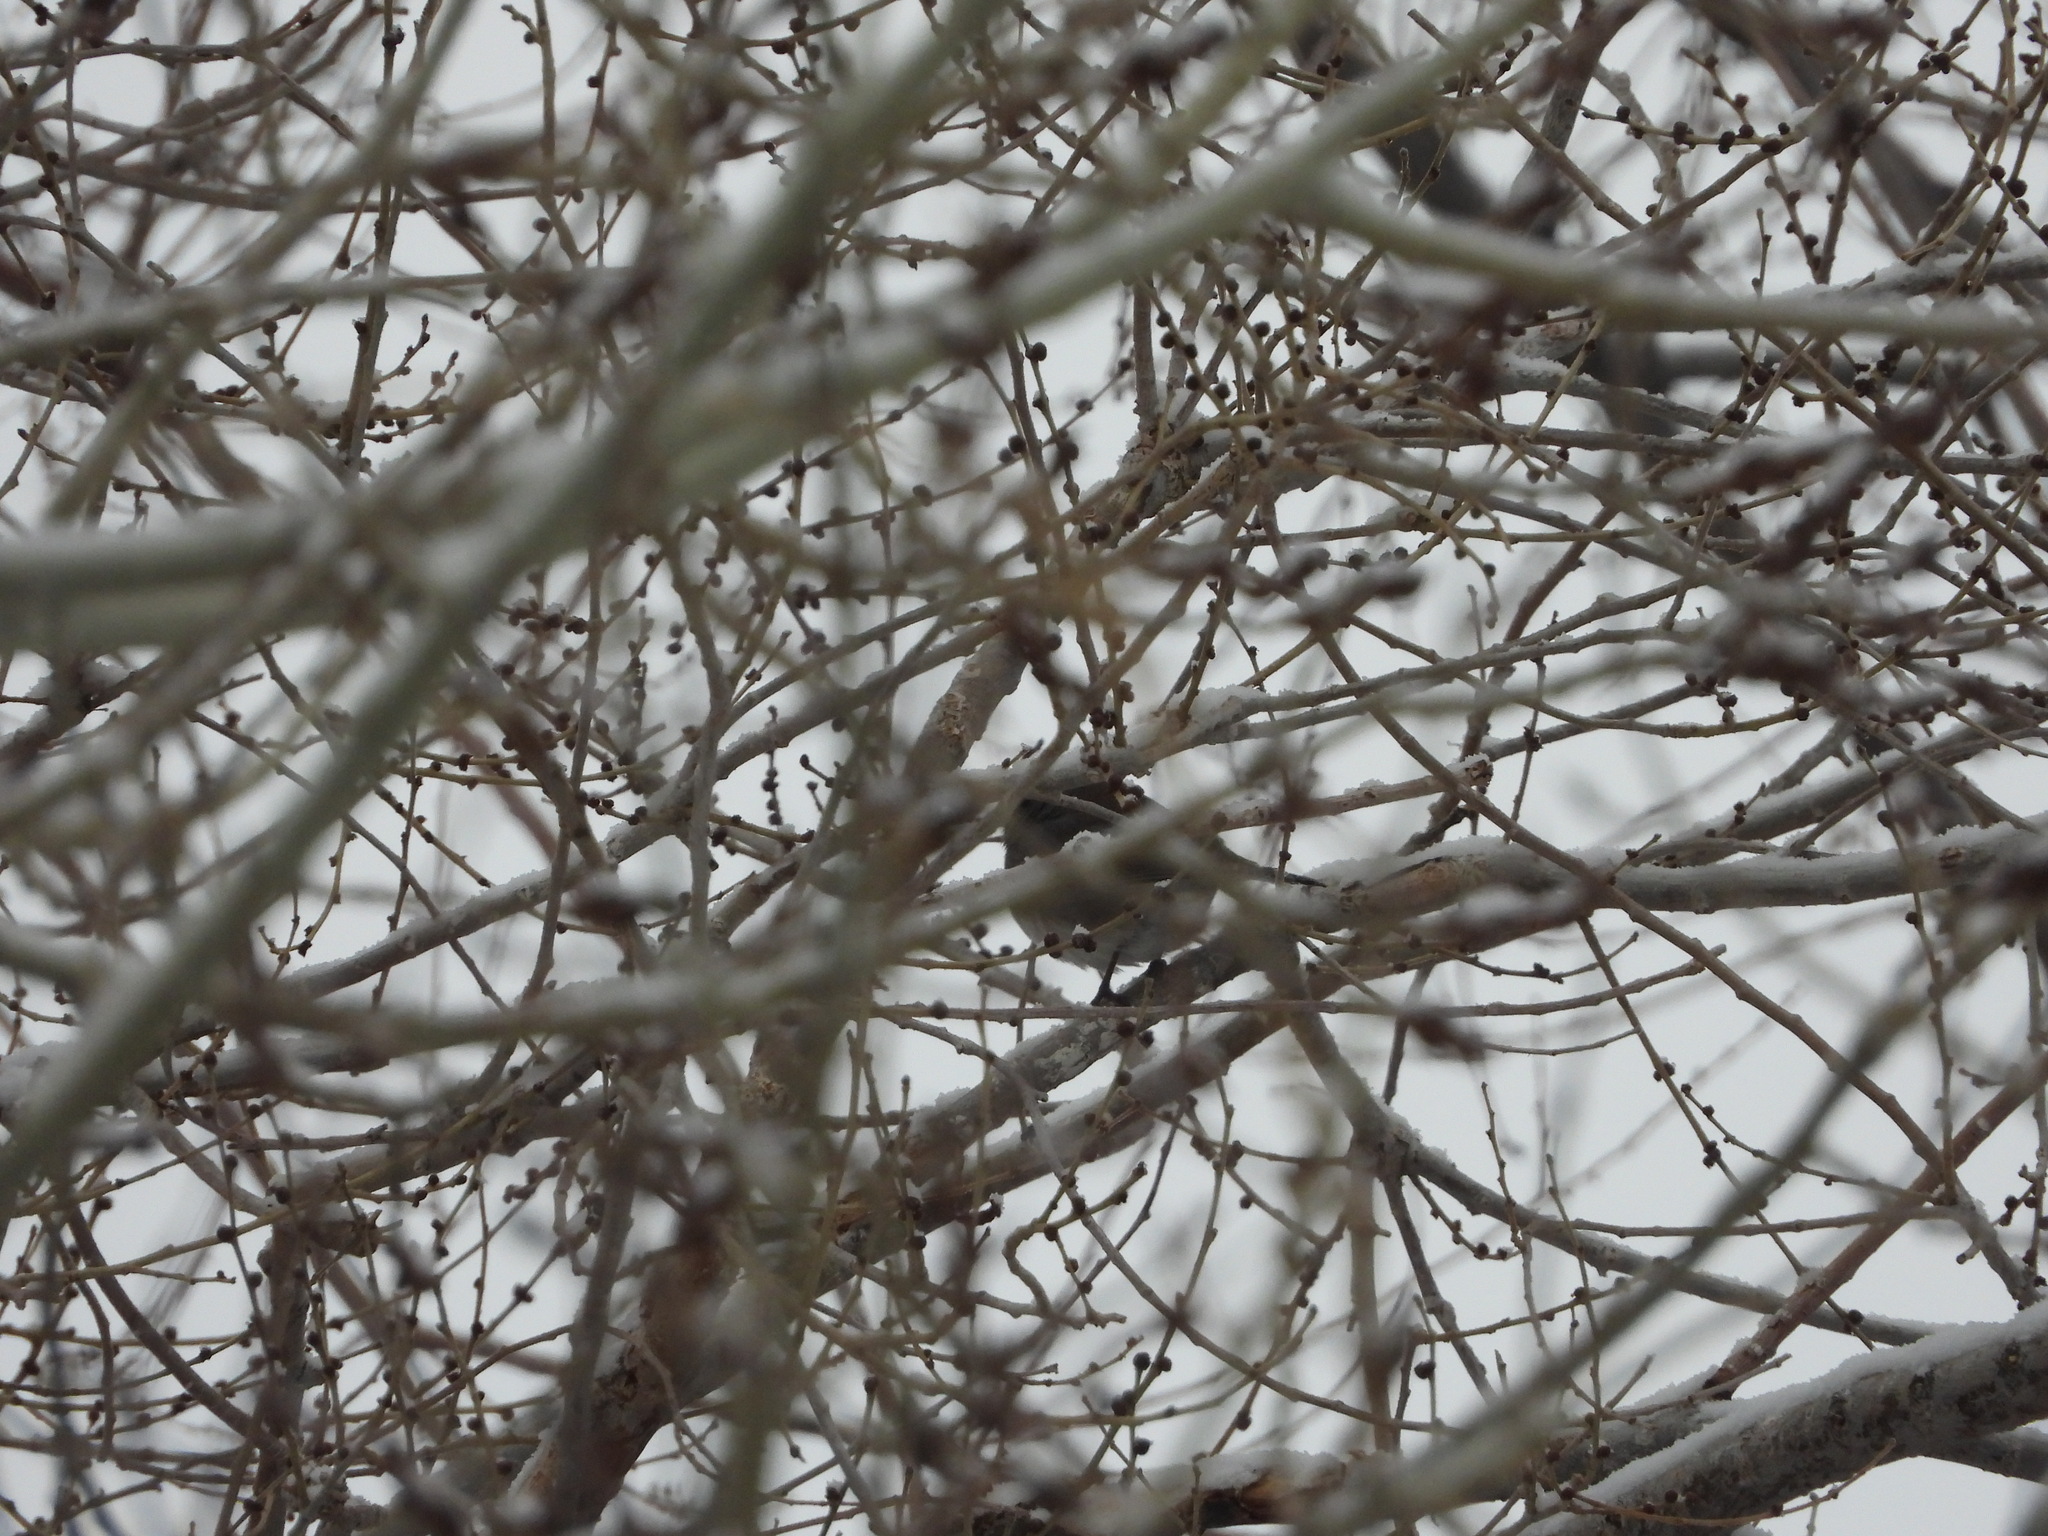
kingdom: Animalia
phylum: Chordata
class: Aves
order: Passeriformes
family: Passerellidae
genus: Junco
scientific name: Junco hyemalis
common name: Dark-eyed junco
